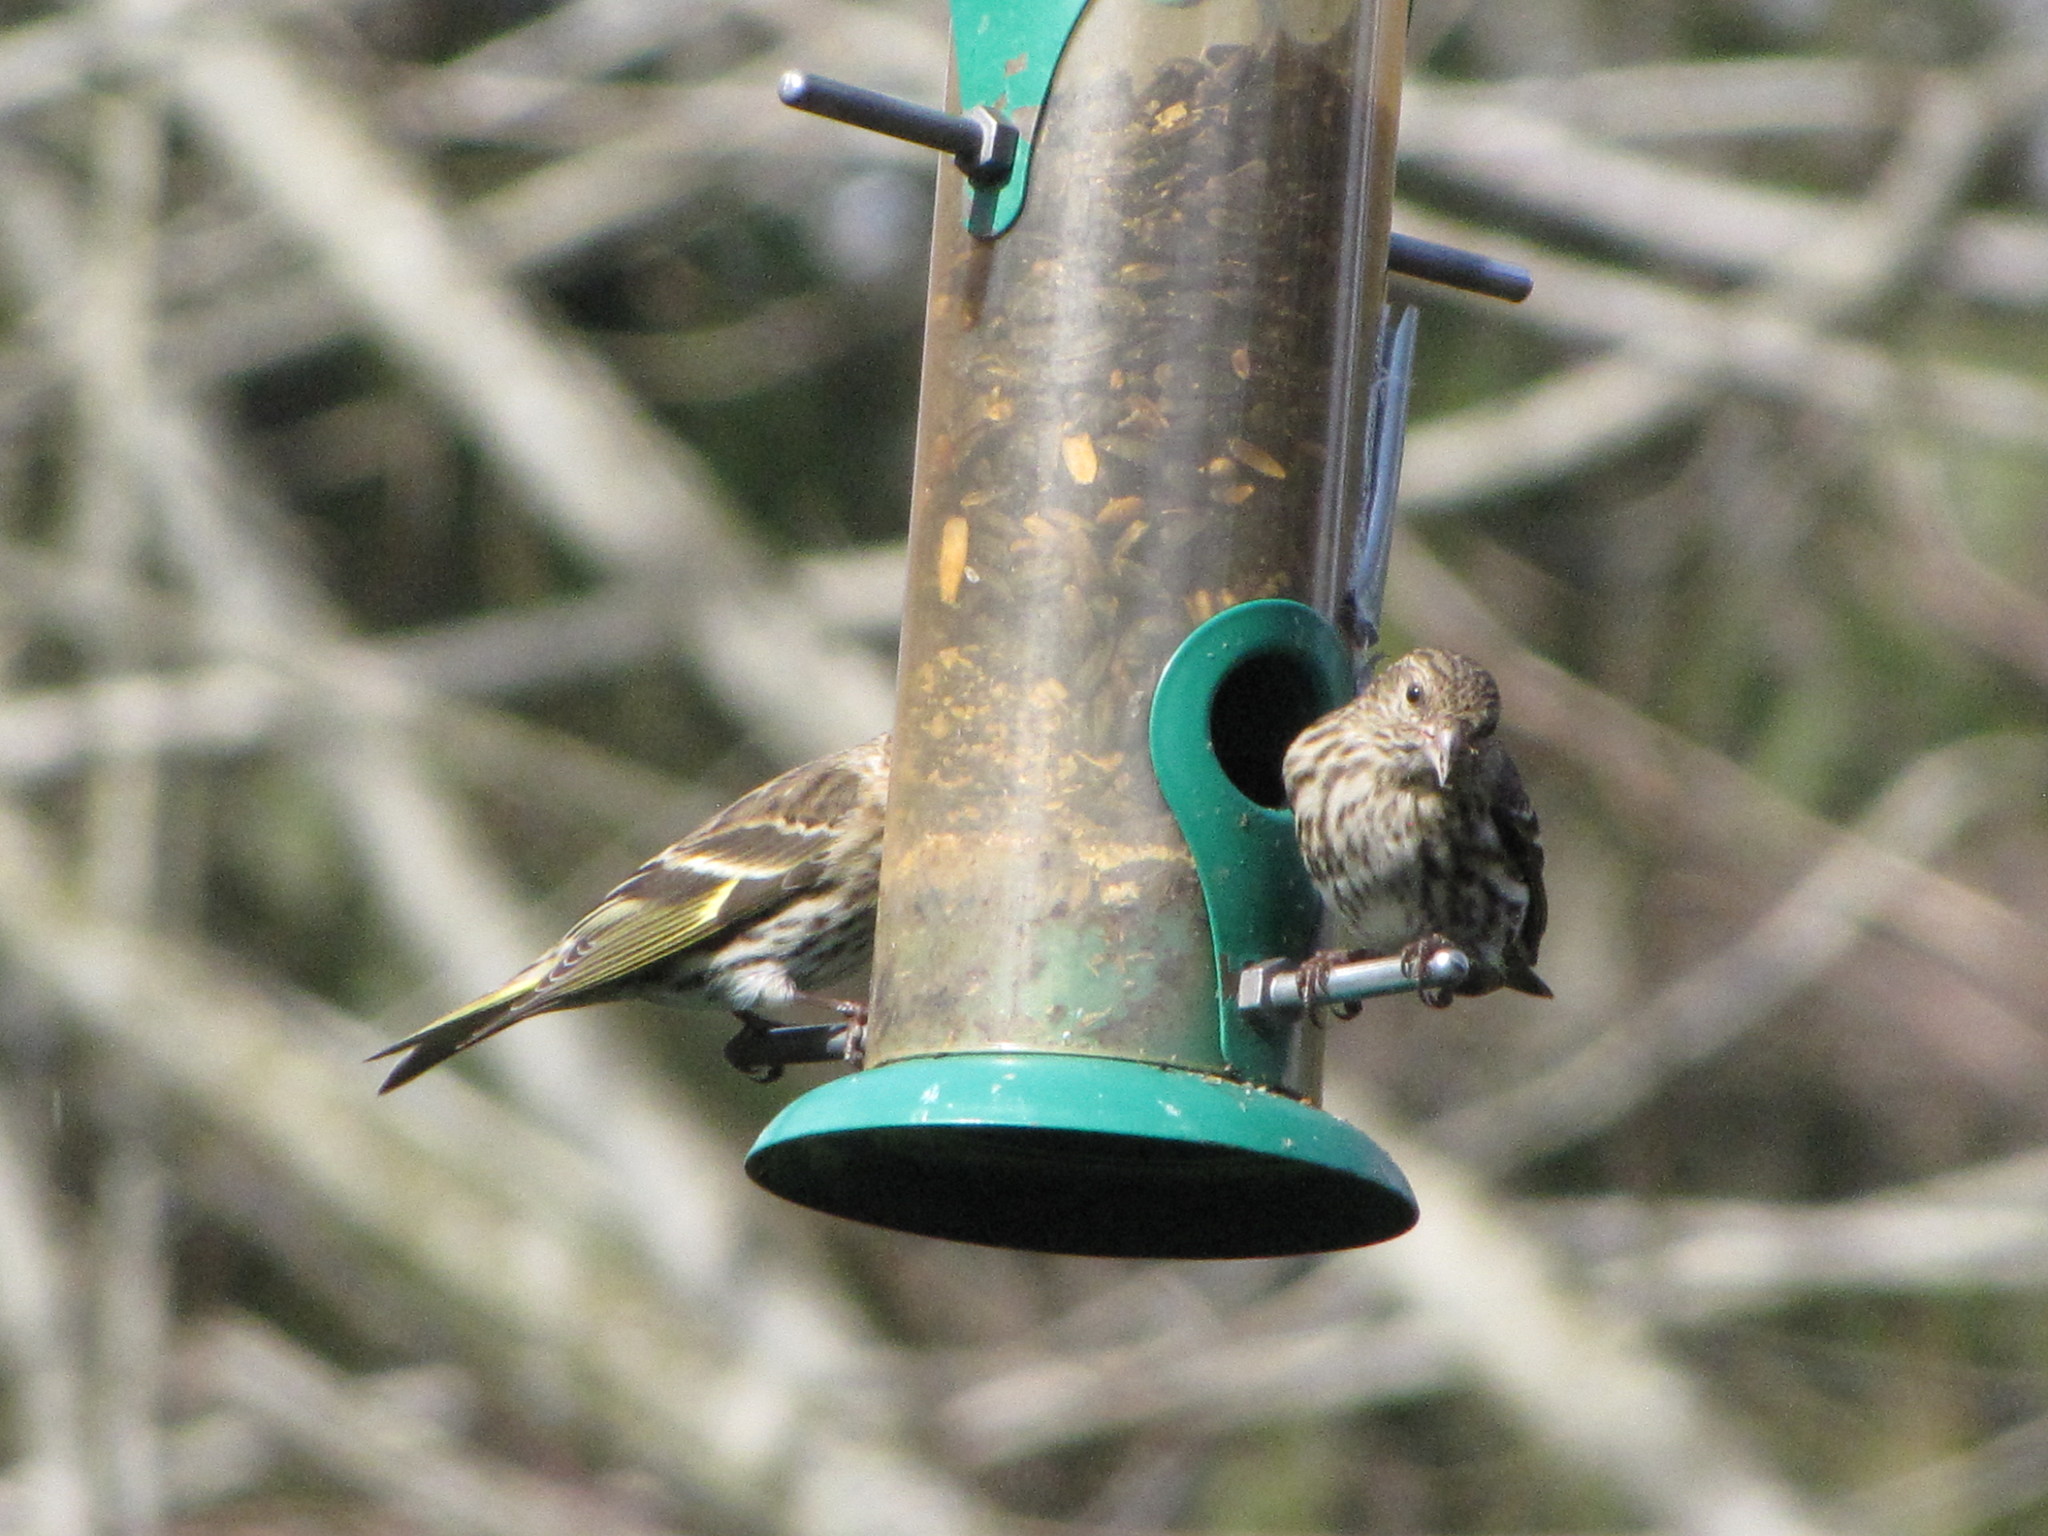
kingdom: Animalia
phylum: Chordata
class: Aves
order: Passeriformes
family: Fringillidae
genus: Spinus
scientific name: Spinus pinus
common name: Pine siskin
